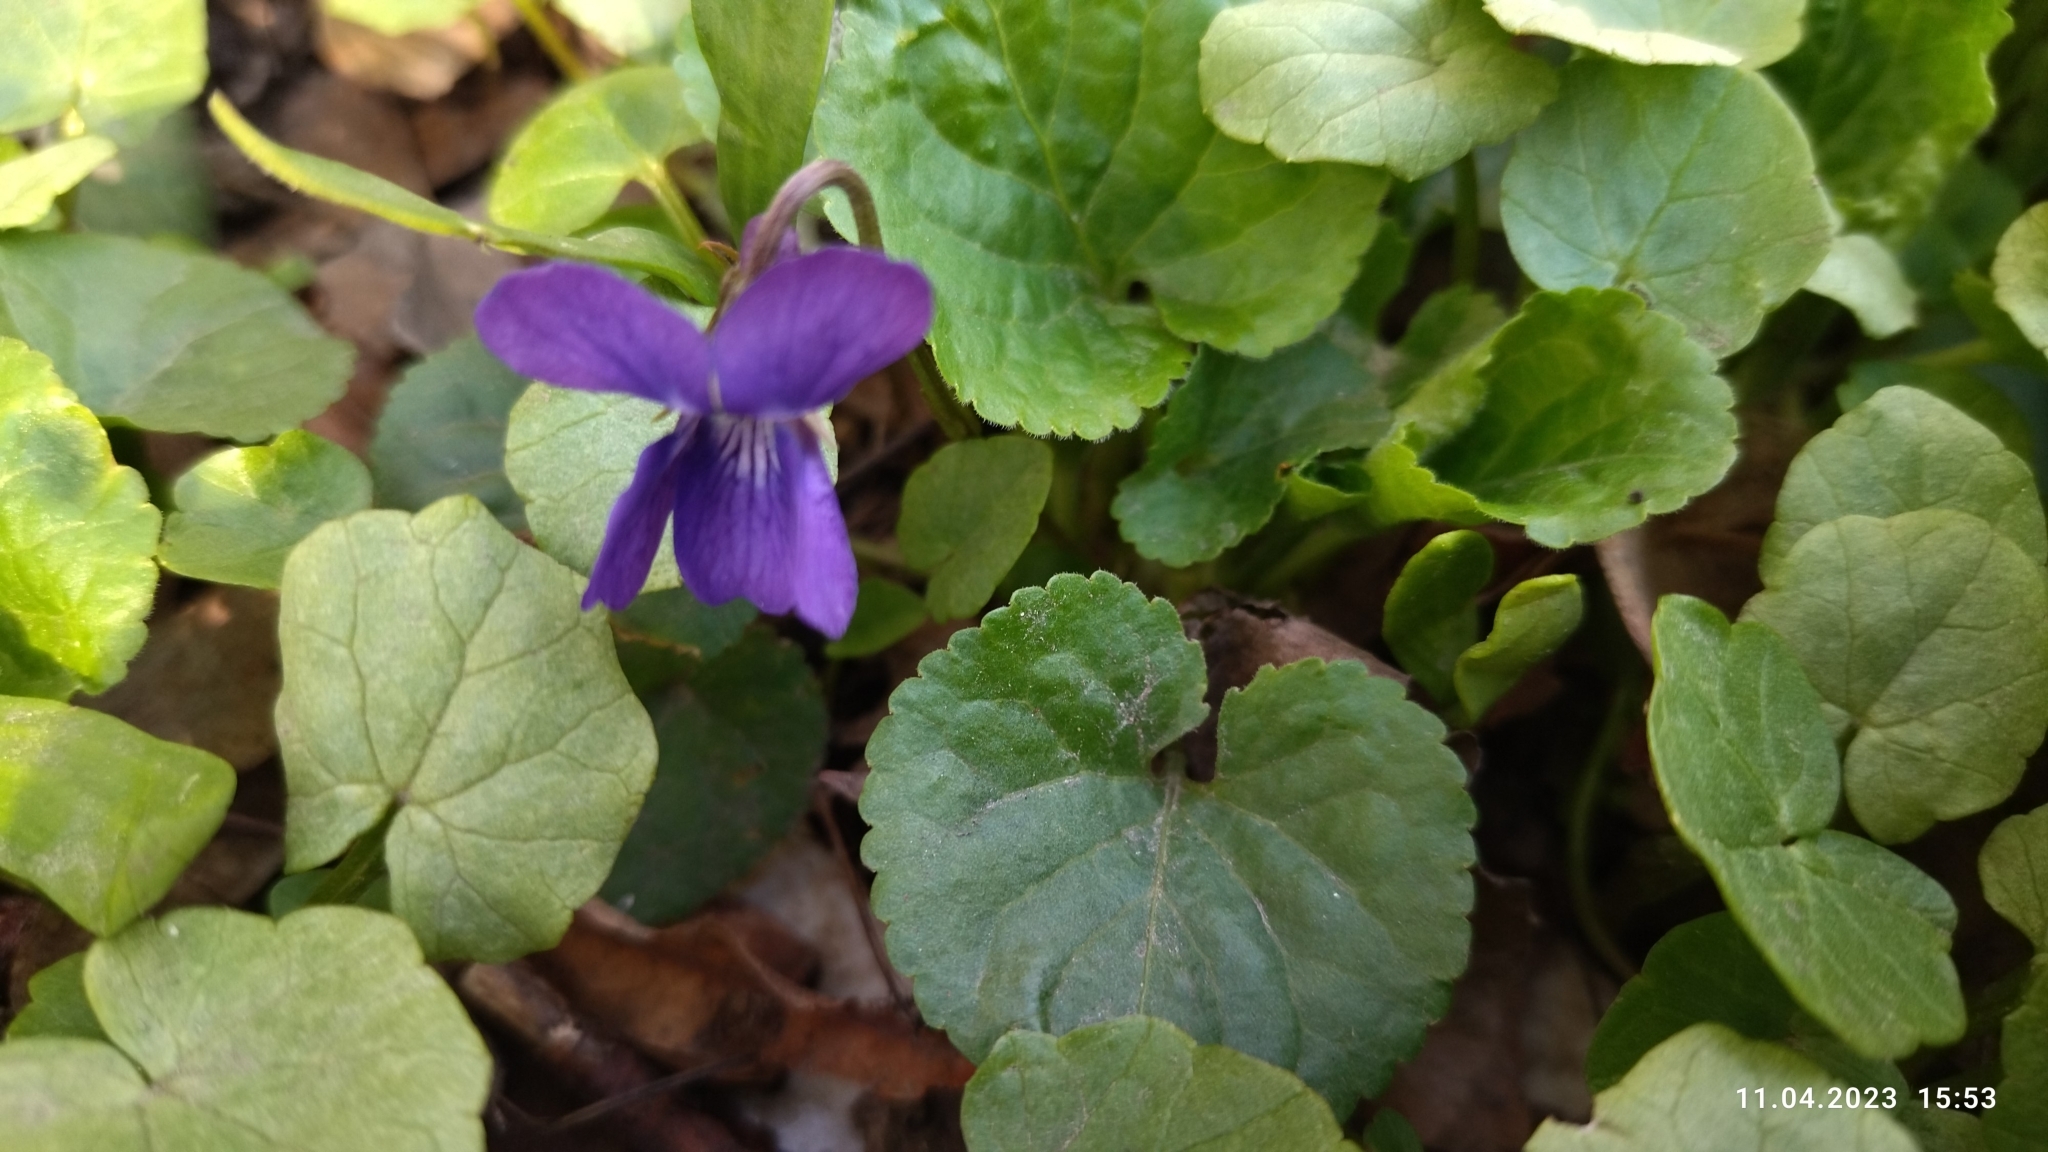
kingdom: Plantae
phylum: Tracheophyta
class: Magnoliopsida
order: Malpighiales
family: Violaceae
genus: Viola
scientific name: Viola odorata
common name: Sweet violet
